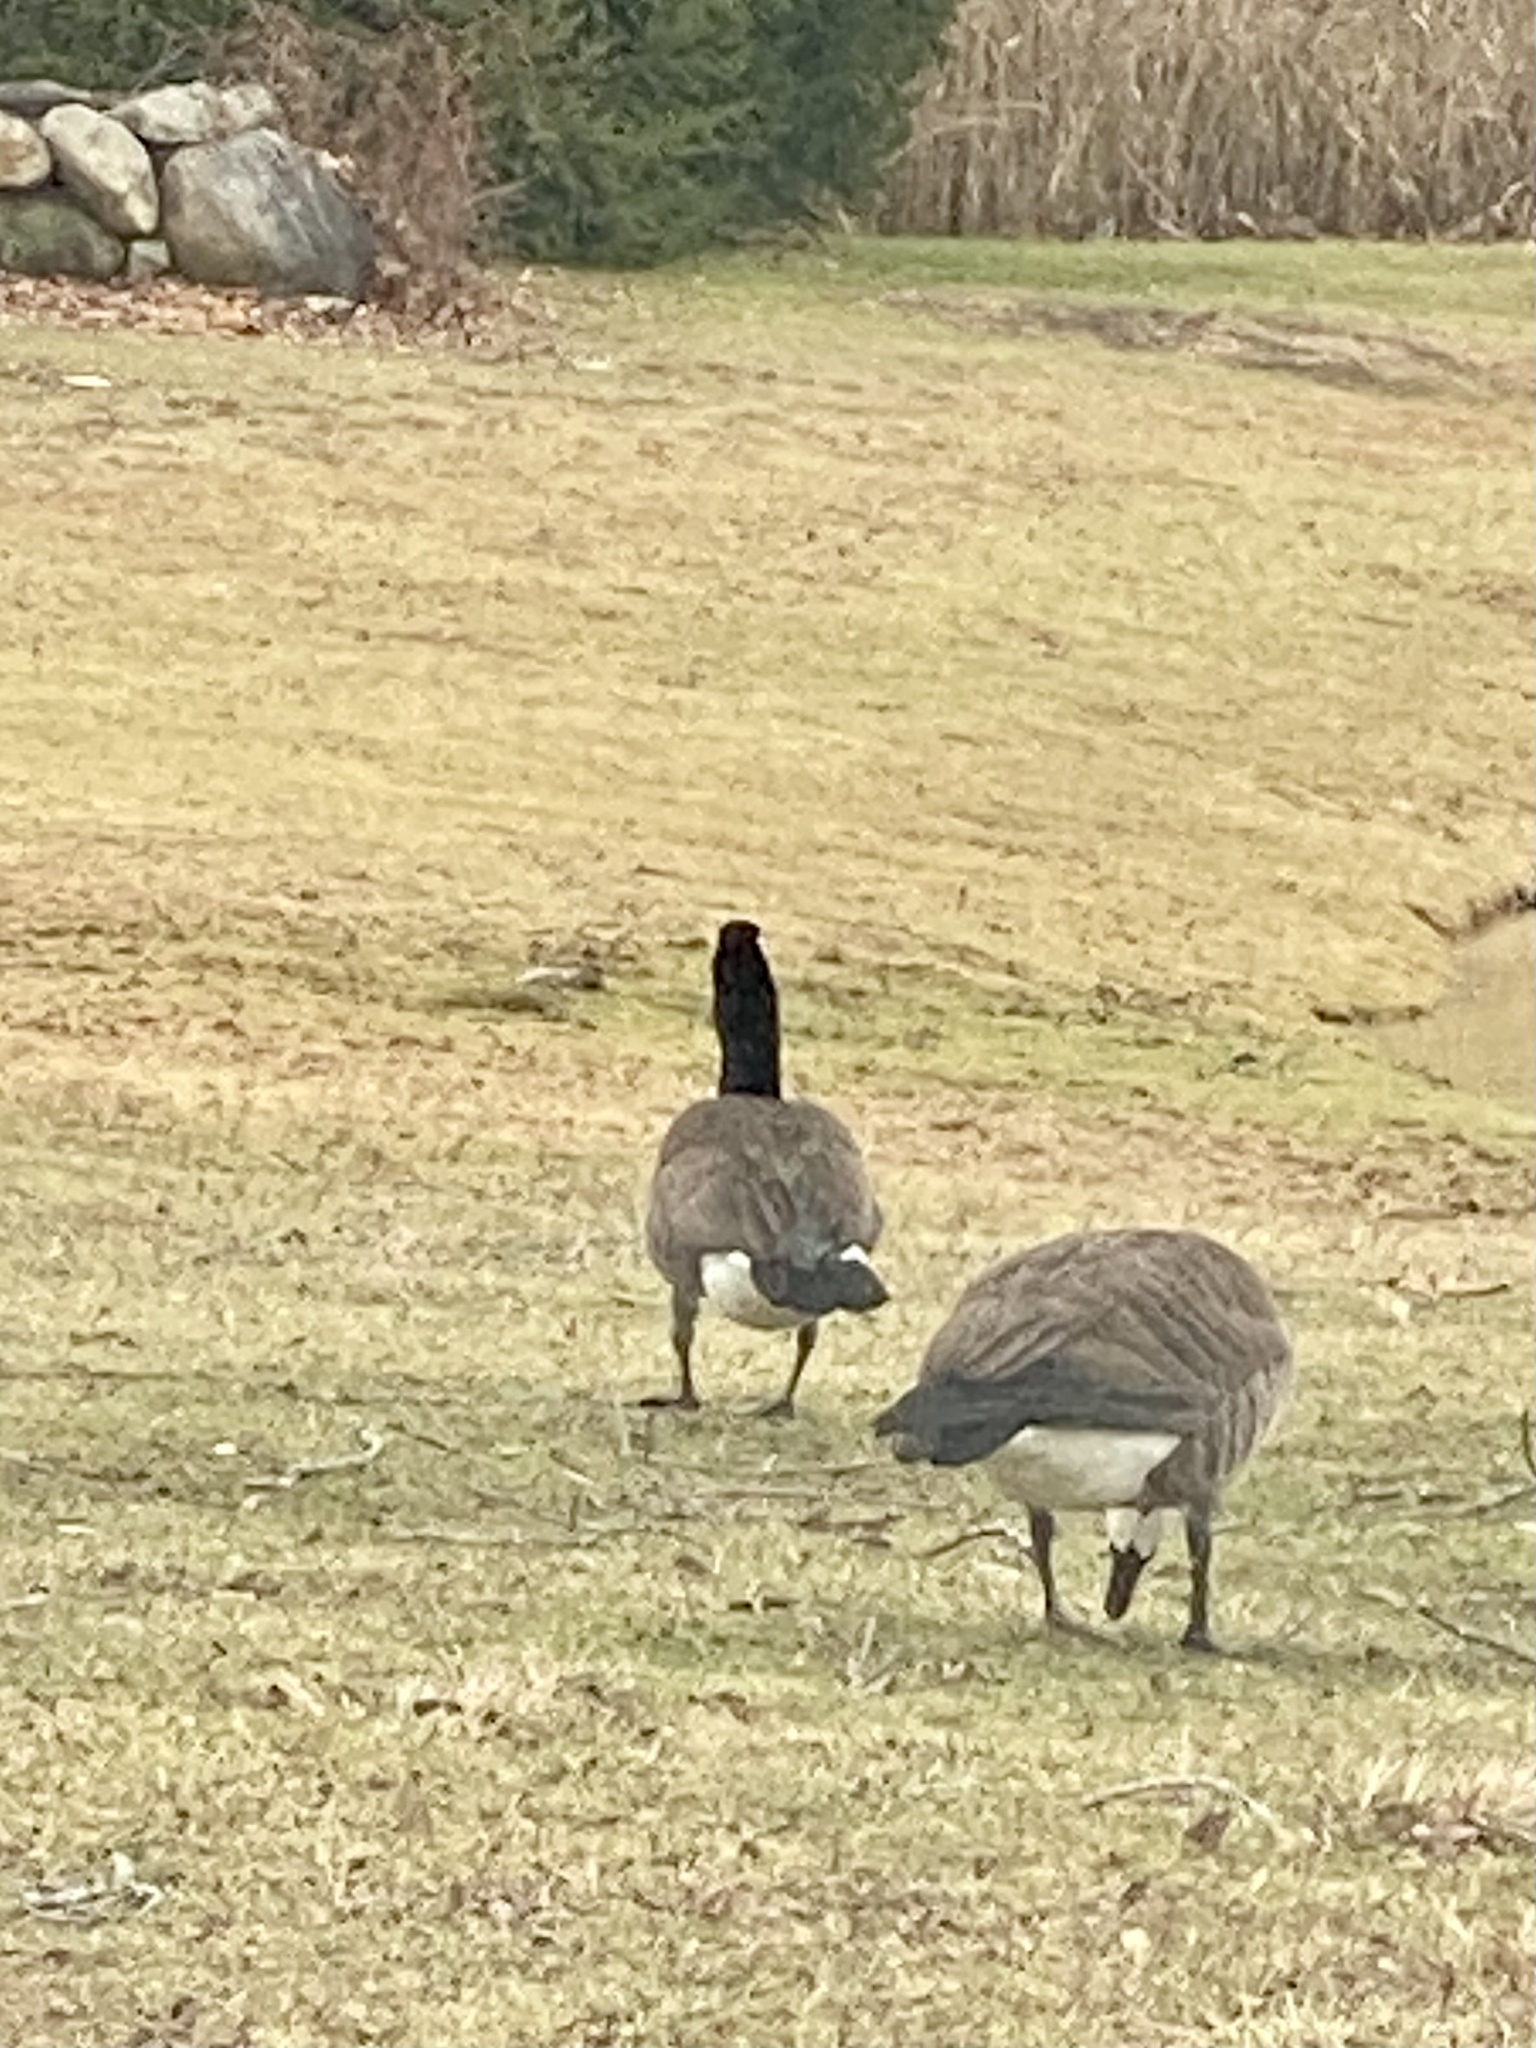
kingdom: Animalia
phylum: Chordata
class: Aves
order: Anseriformes
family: Anatidae
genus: Branta
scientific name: Branta canadensis
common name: Canada goose
